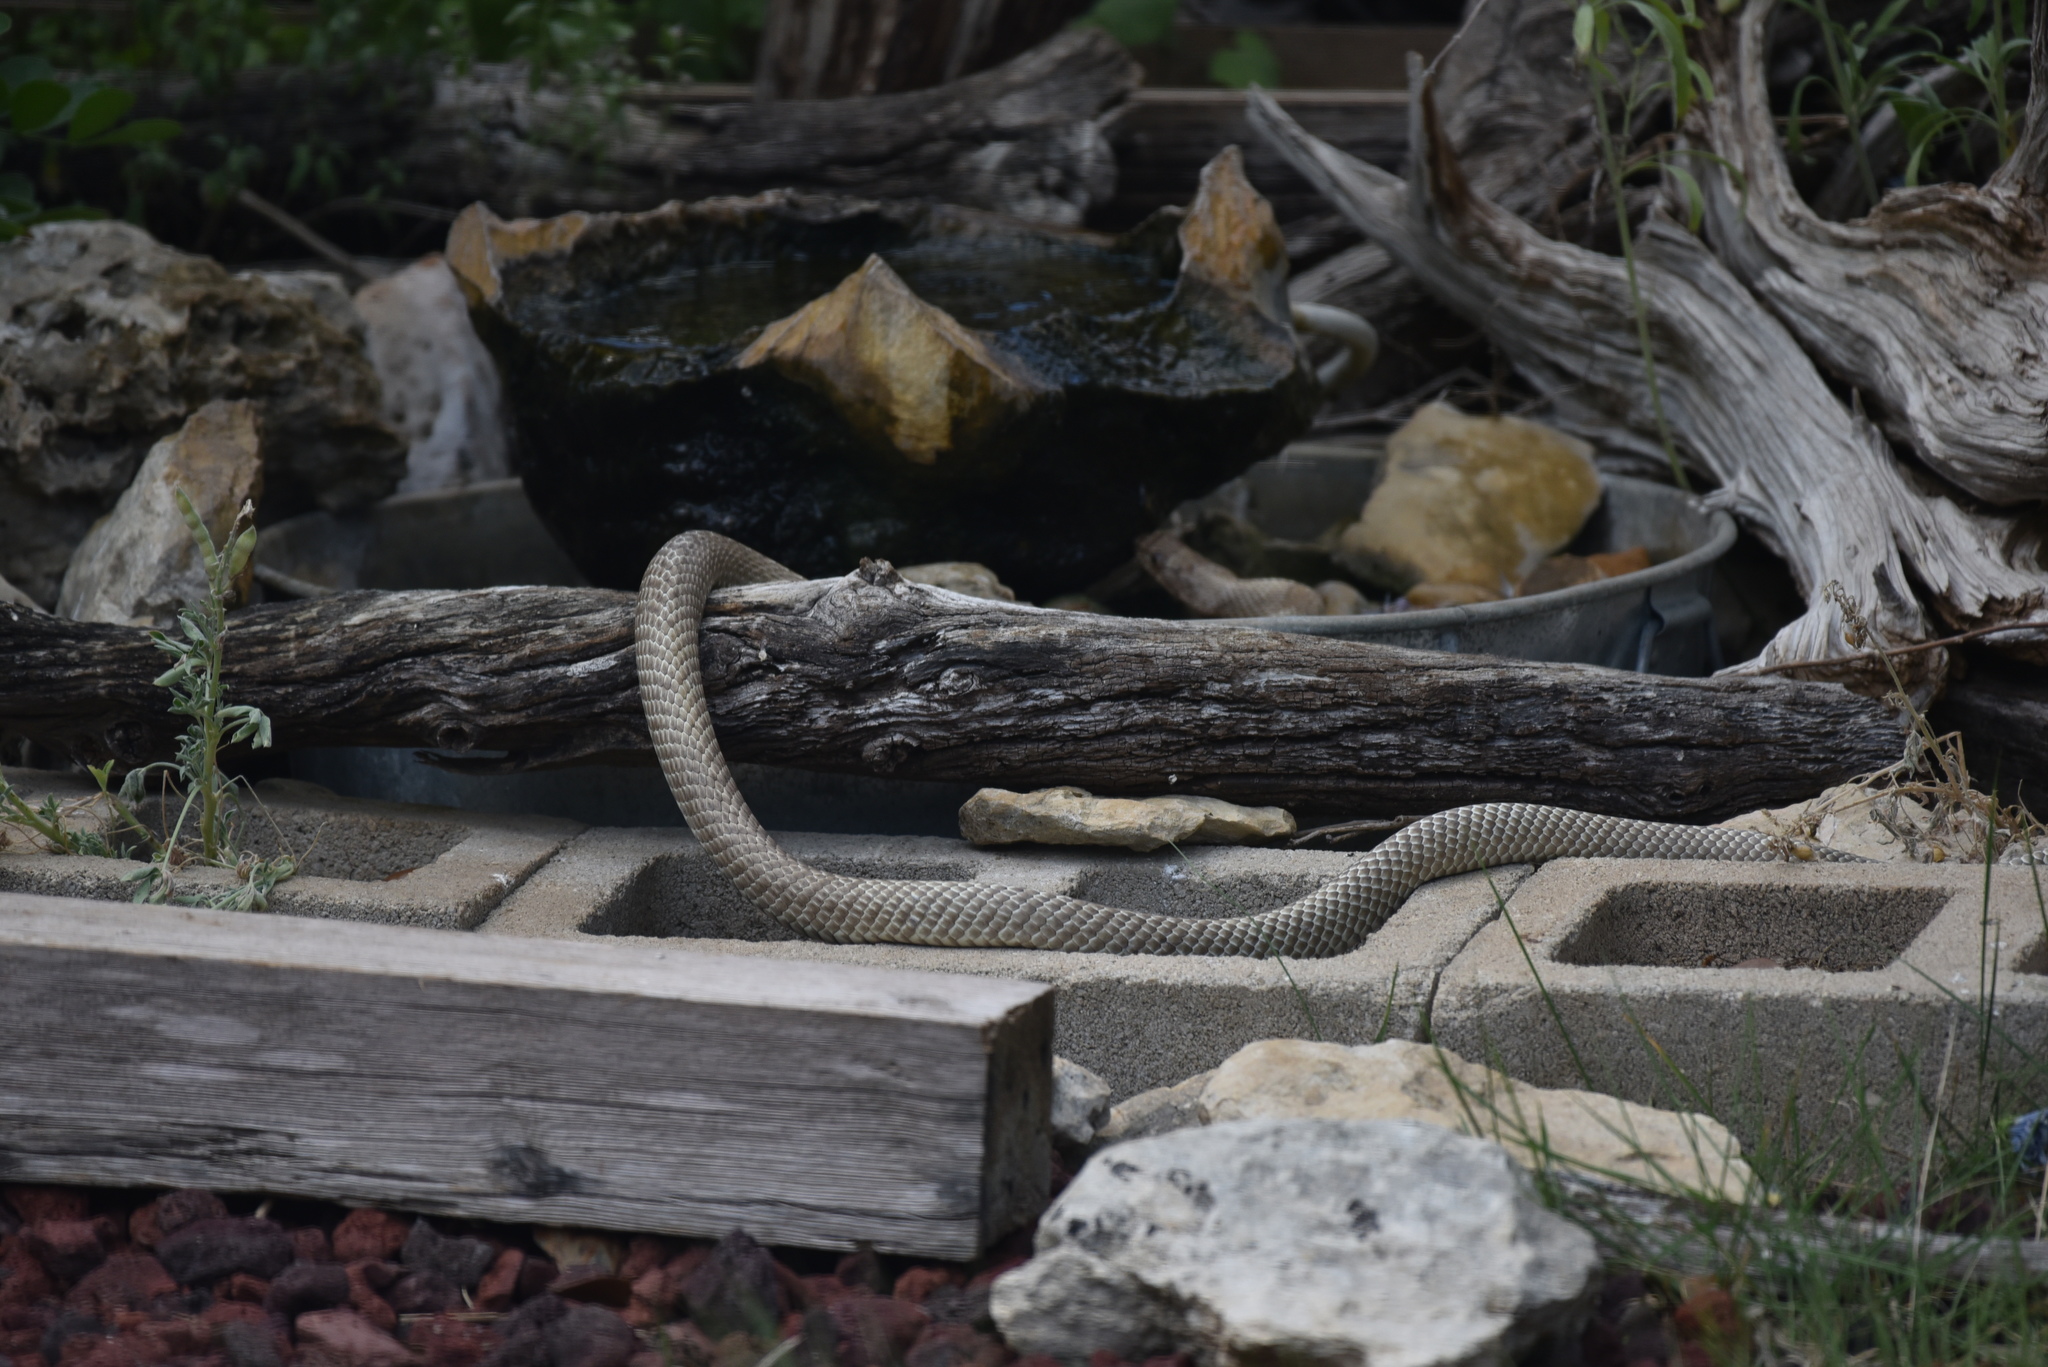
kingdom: Animalia
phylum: Chordata
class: Squamata
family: Colubridae
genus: Masticophis
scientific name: Masticophis flagellum
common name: Coachwhip
